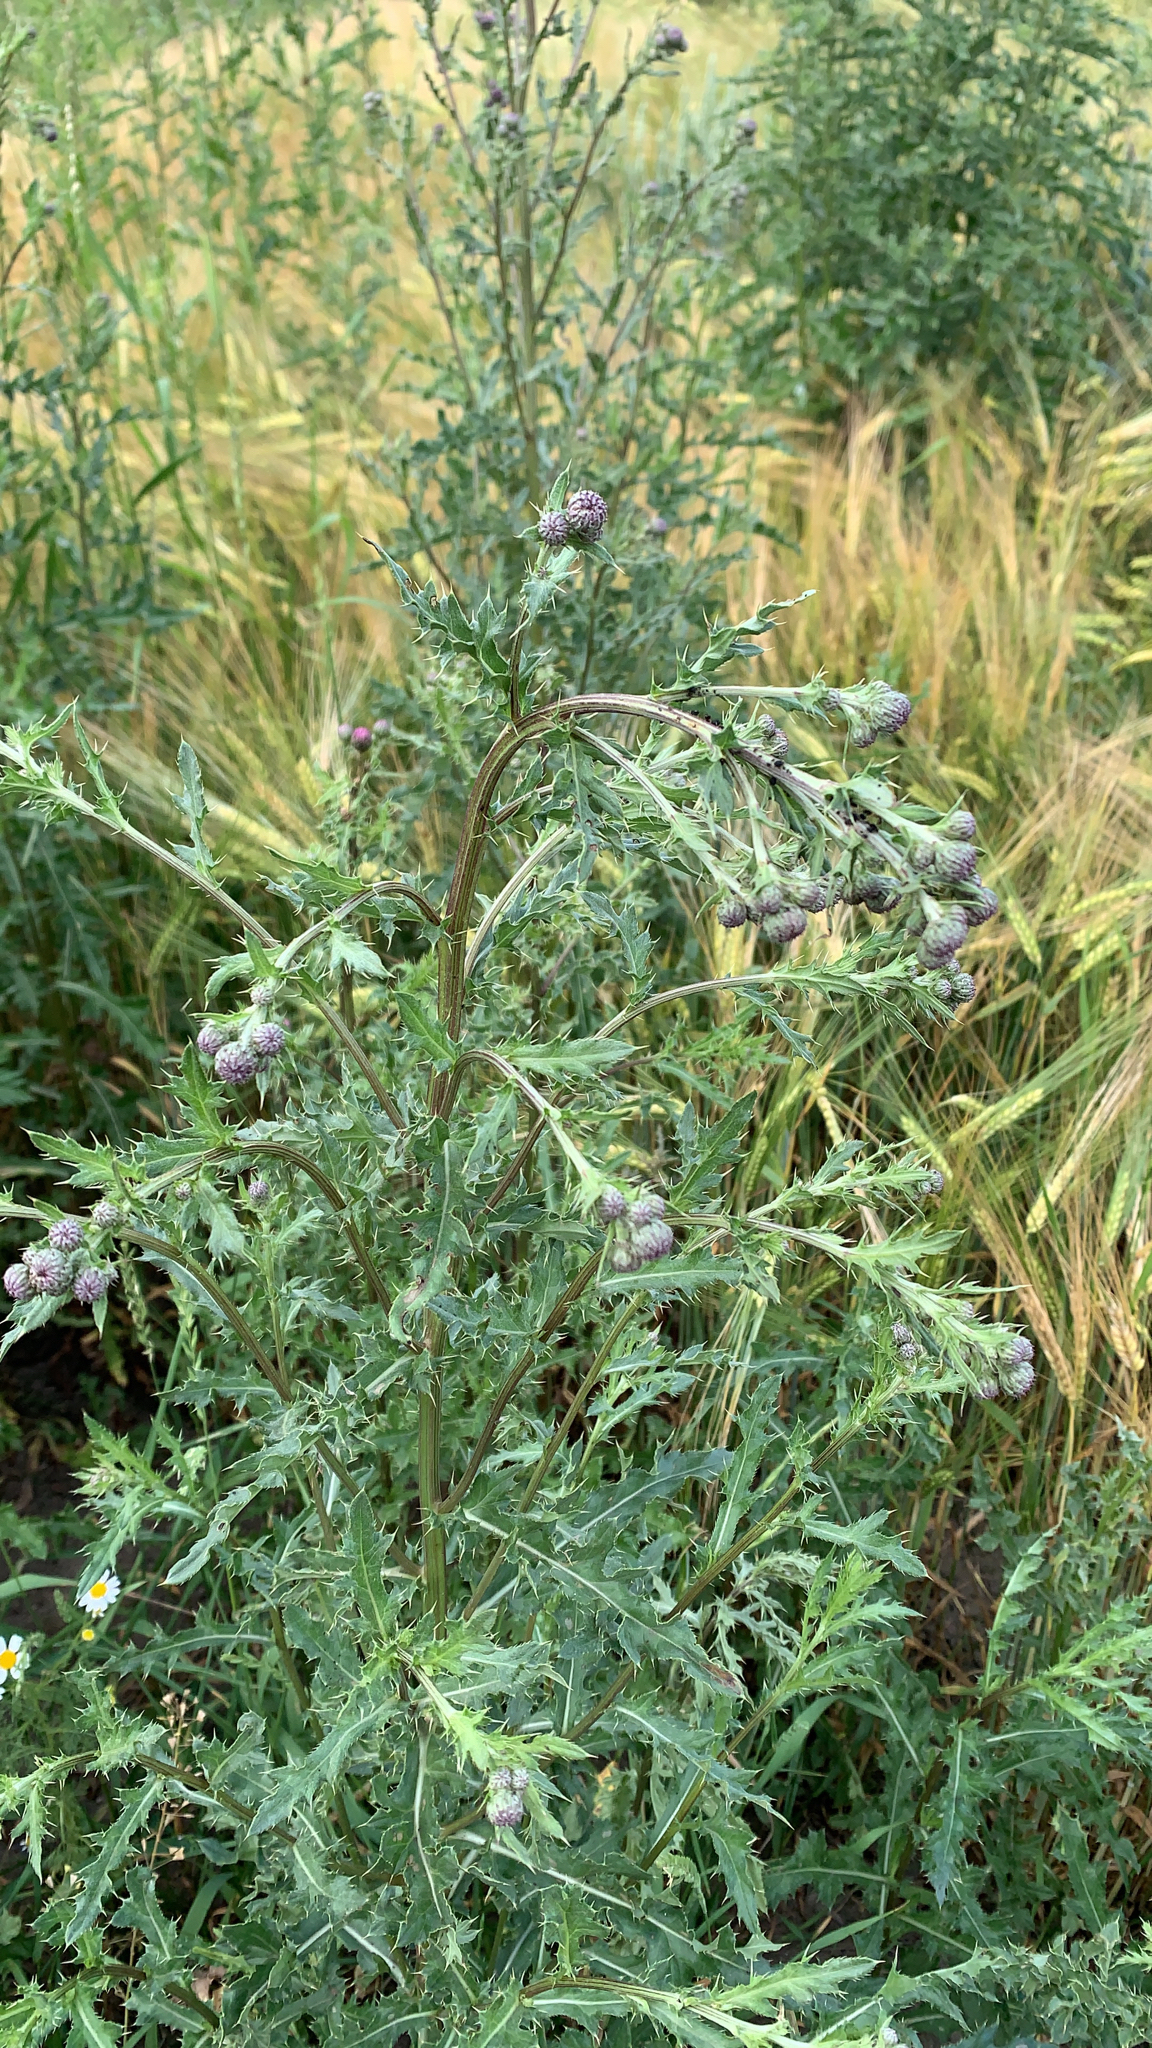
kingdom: Plantae
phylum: Tracheophyta
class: Magnoliopsida
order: Asterales
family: Asteraceae
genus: Cirsium
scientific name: Cirsium arvense
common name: Creeping thistle
